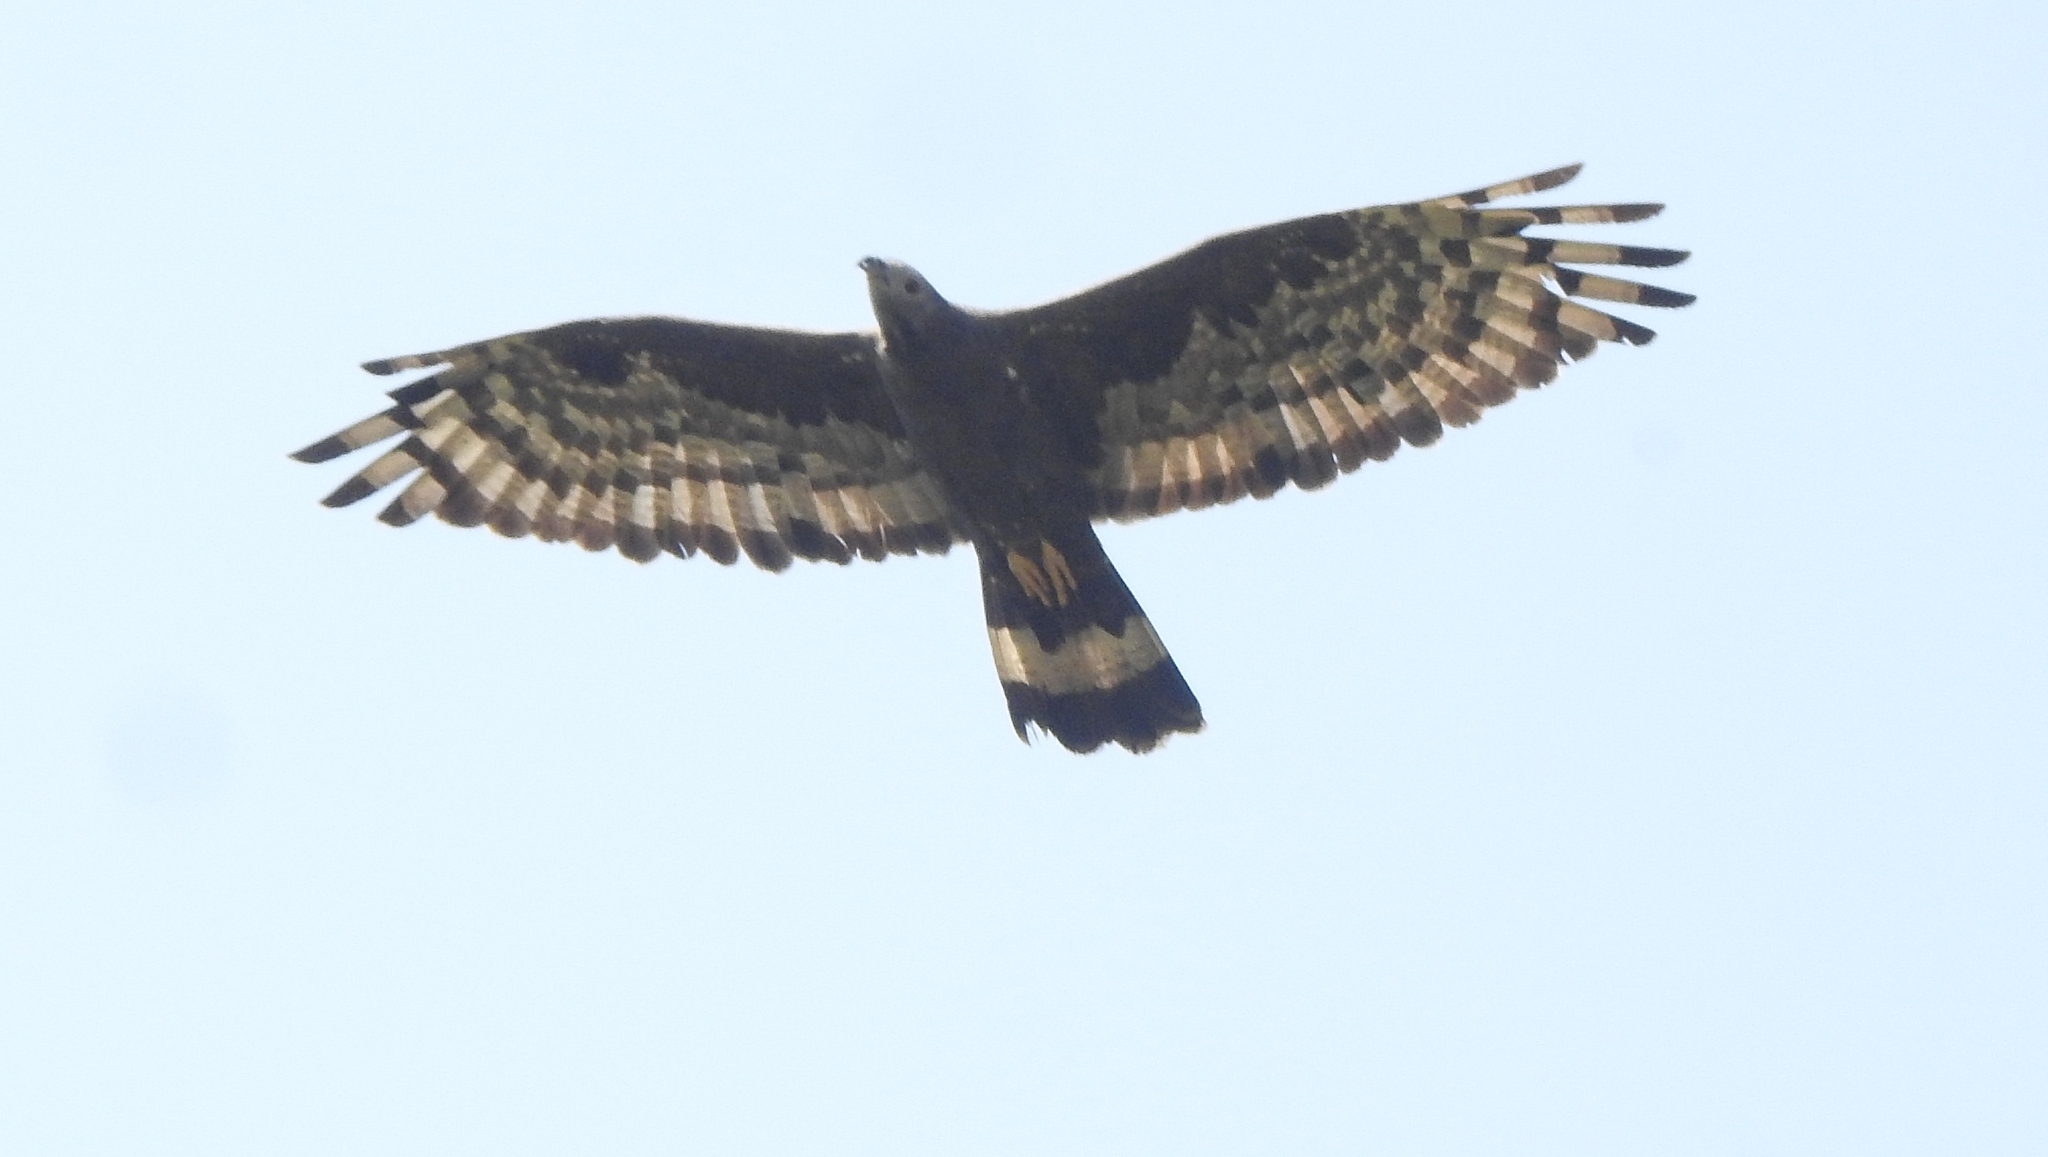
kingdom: Animalia
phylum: Chordata
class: Aves
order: Accipitriformes
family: Accipitridae
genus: Pernis
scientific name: Pernis ptilorhynchus
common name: Crested honey buzzard
